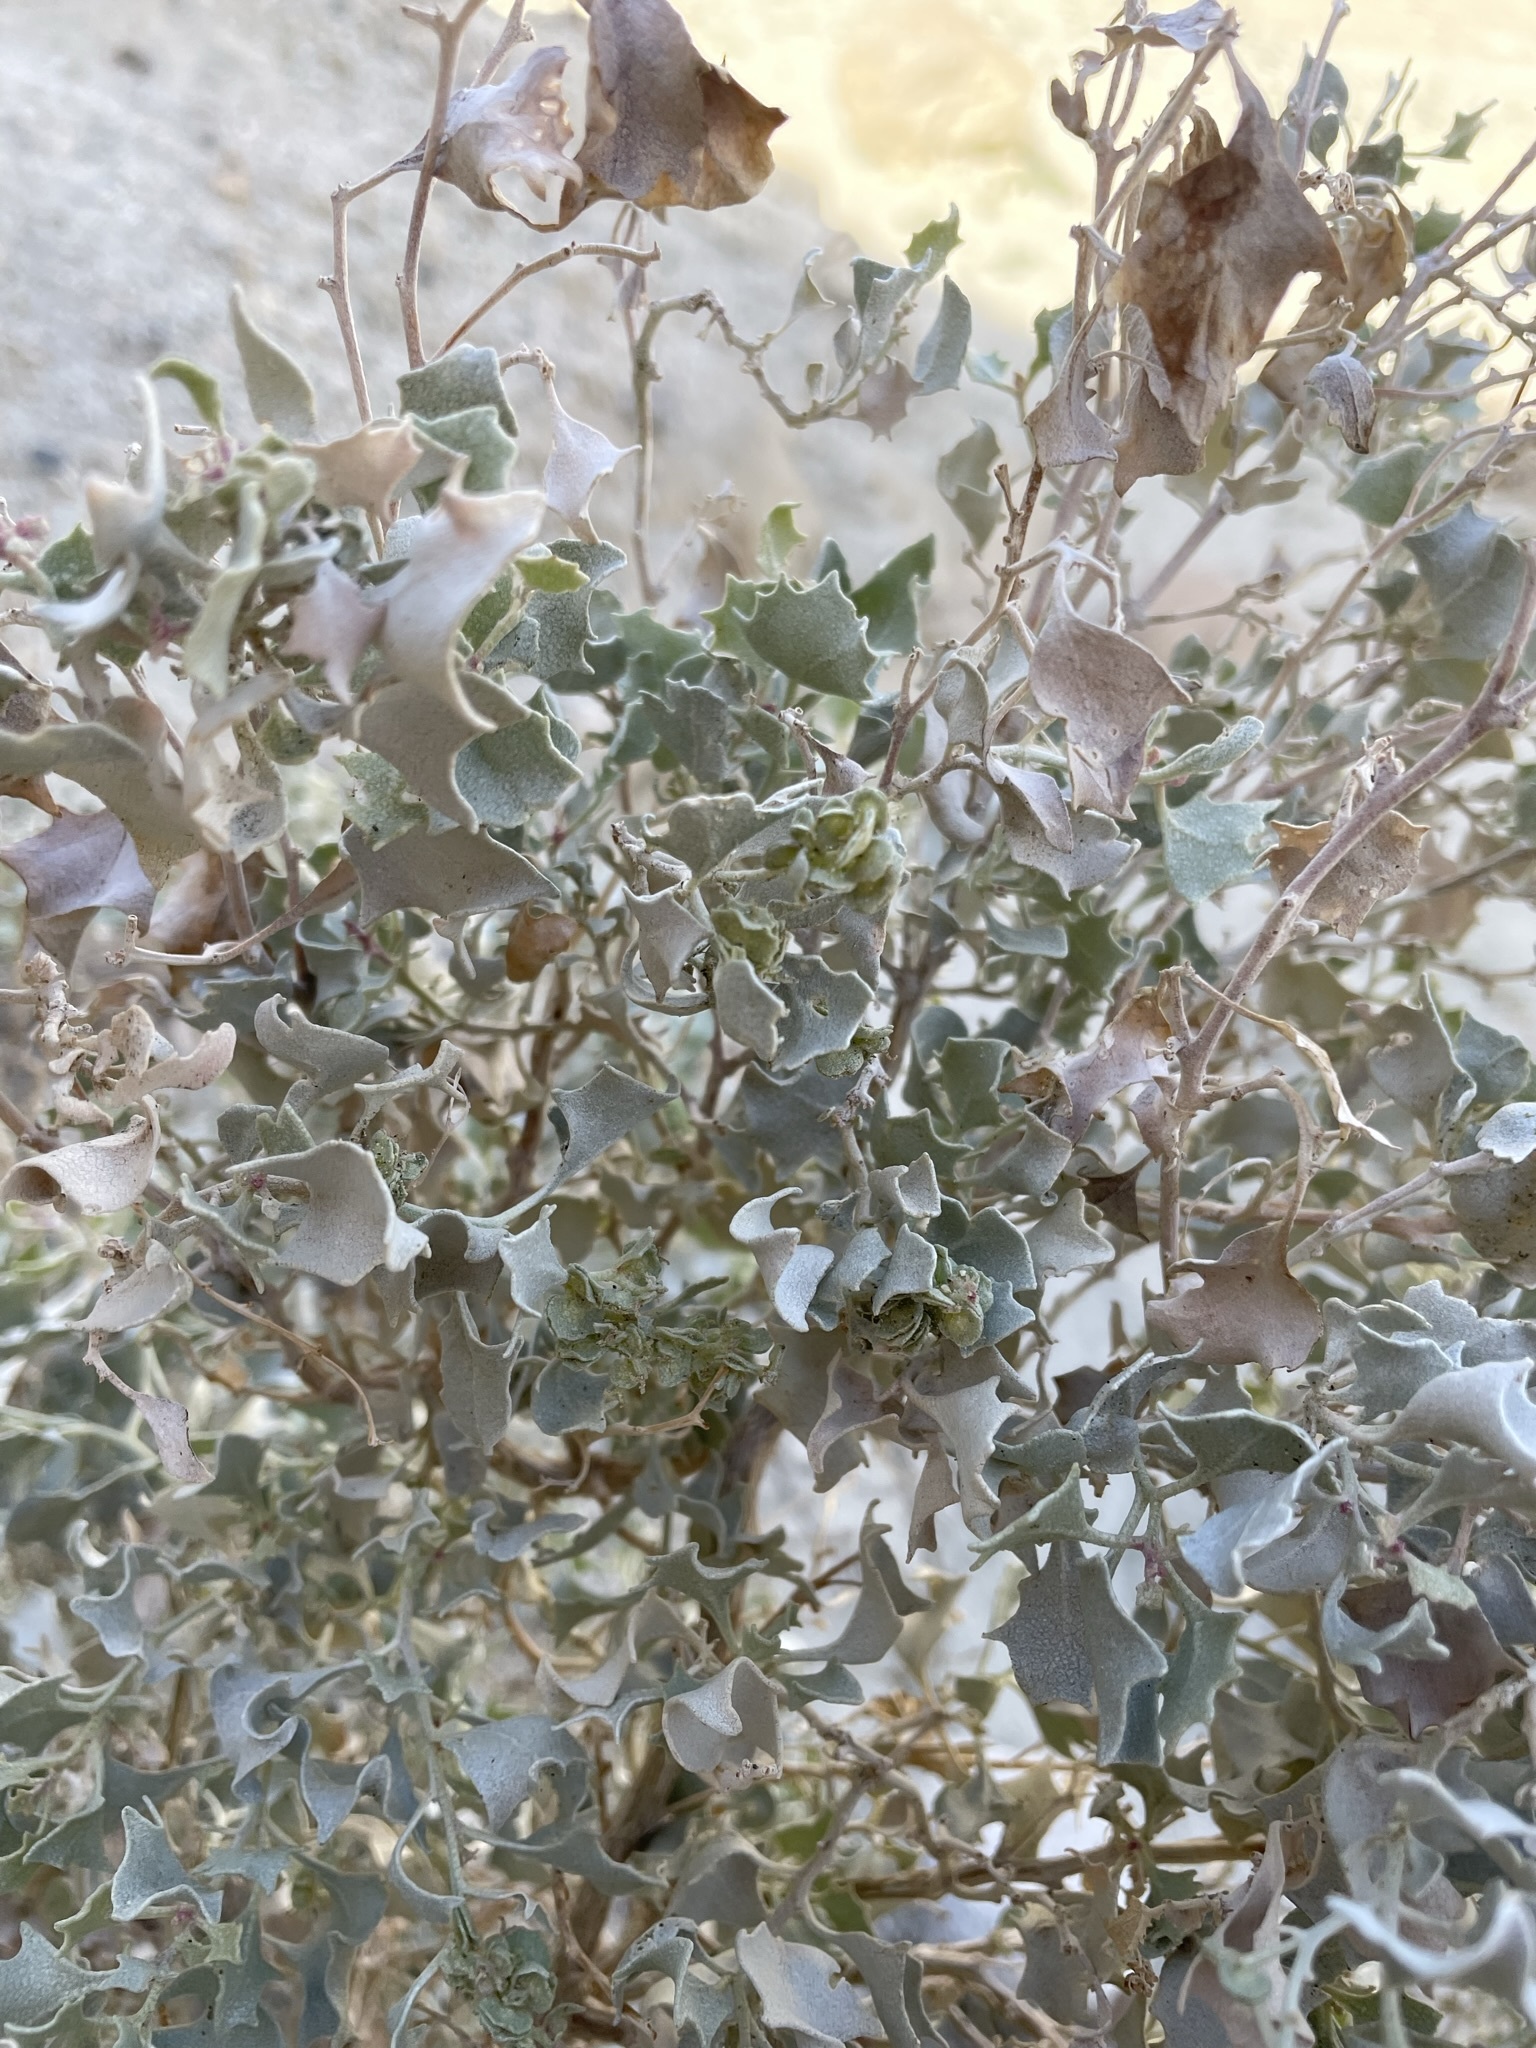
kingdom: Plantae
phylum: Tracheophyta
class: Magnoliopsida
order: Caryophyllales
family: Amaranthaceae
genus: Atriplex
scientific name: Atriplex hymenelytra
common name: Desert-holly
